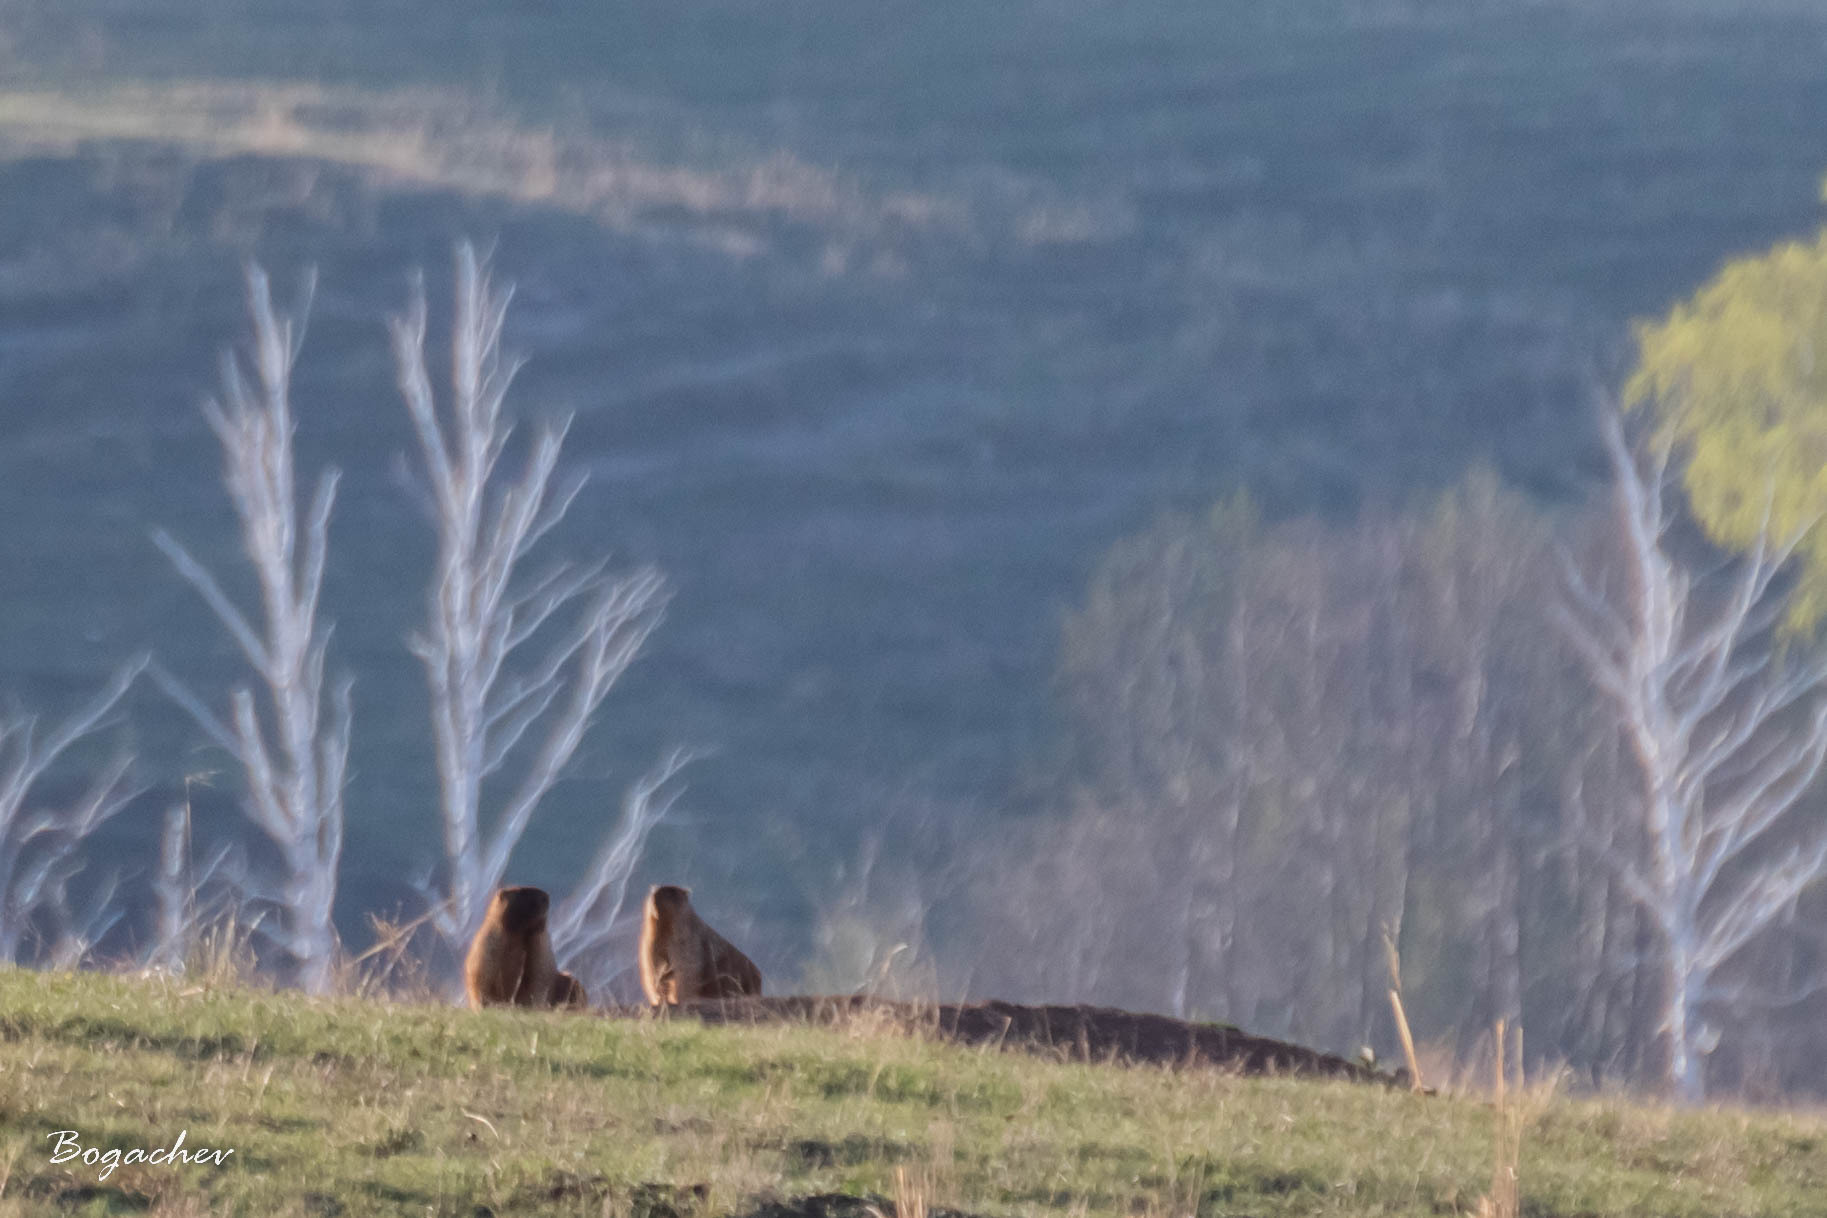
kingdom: Animalia
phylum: Chordata
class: Mammalia
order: Rodentia
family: Sciuridae
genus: Marmota
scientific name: Marmota bobak
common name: Bobak marmot
